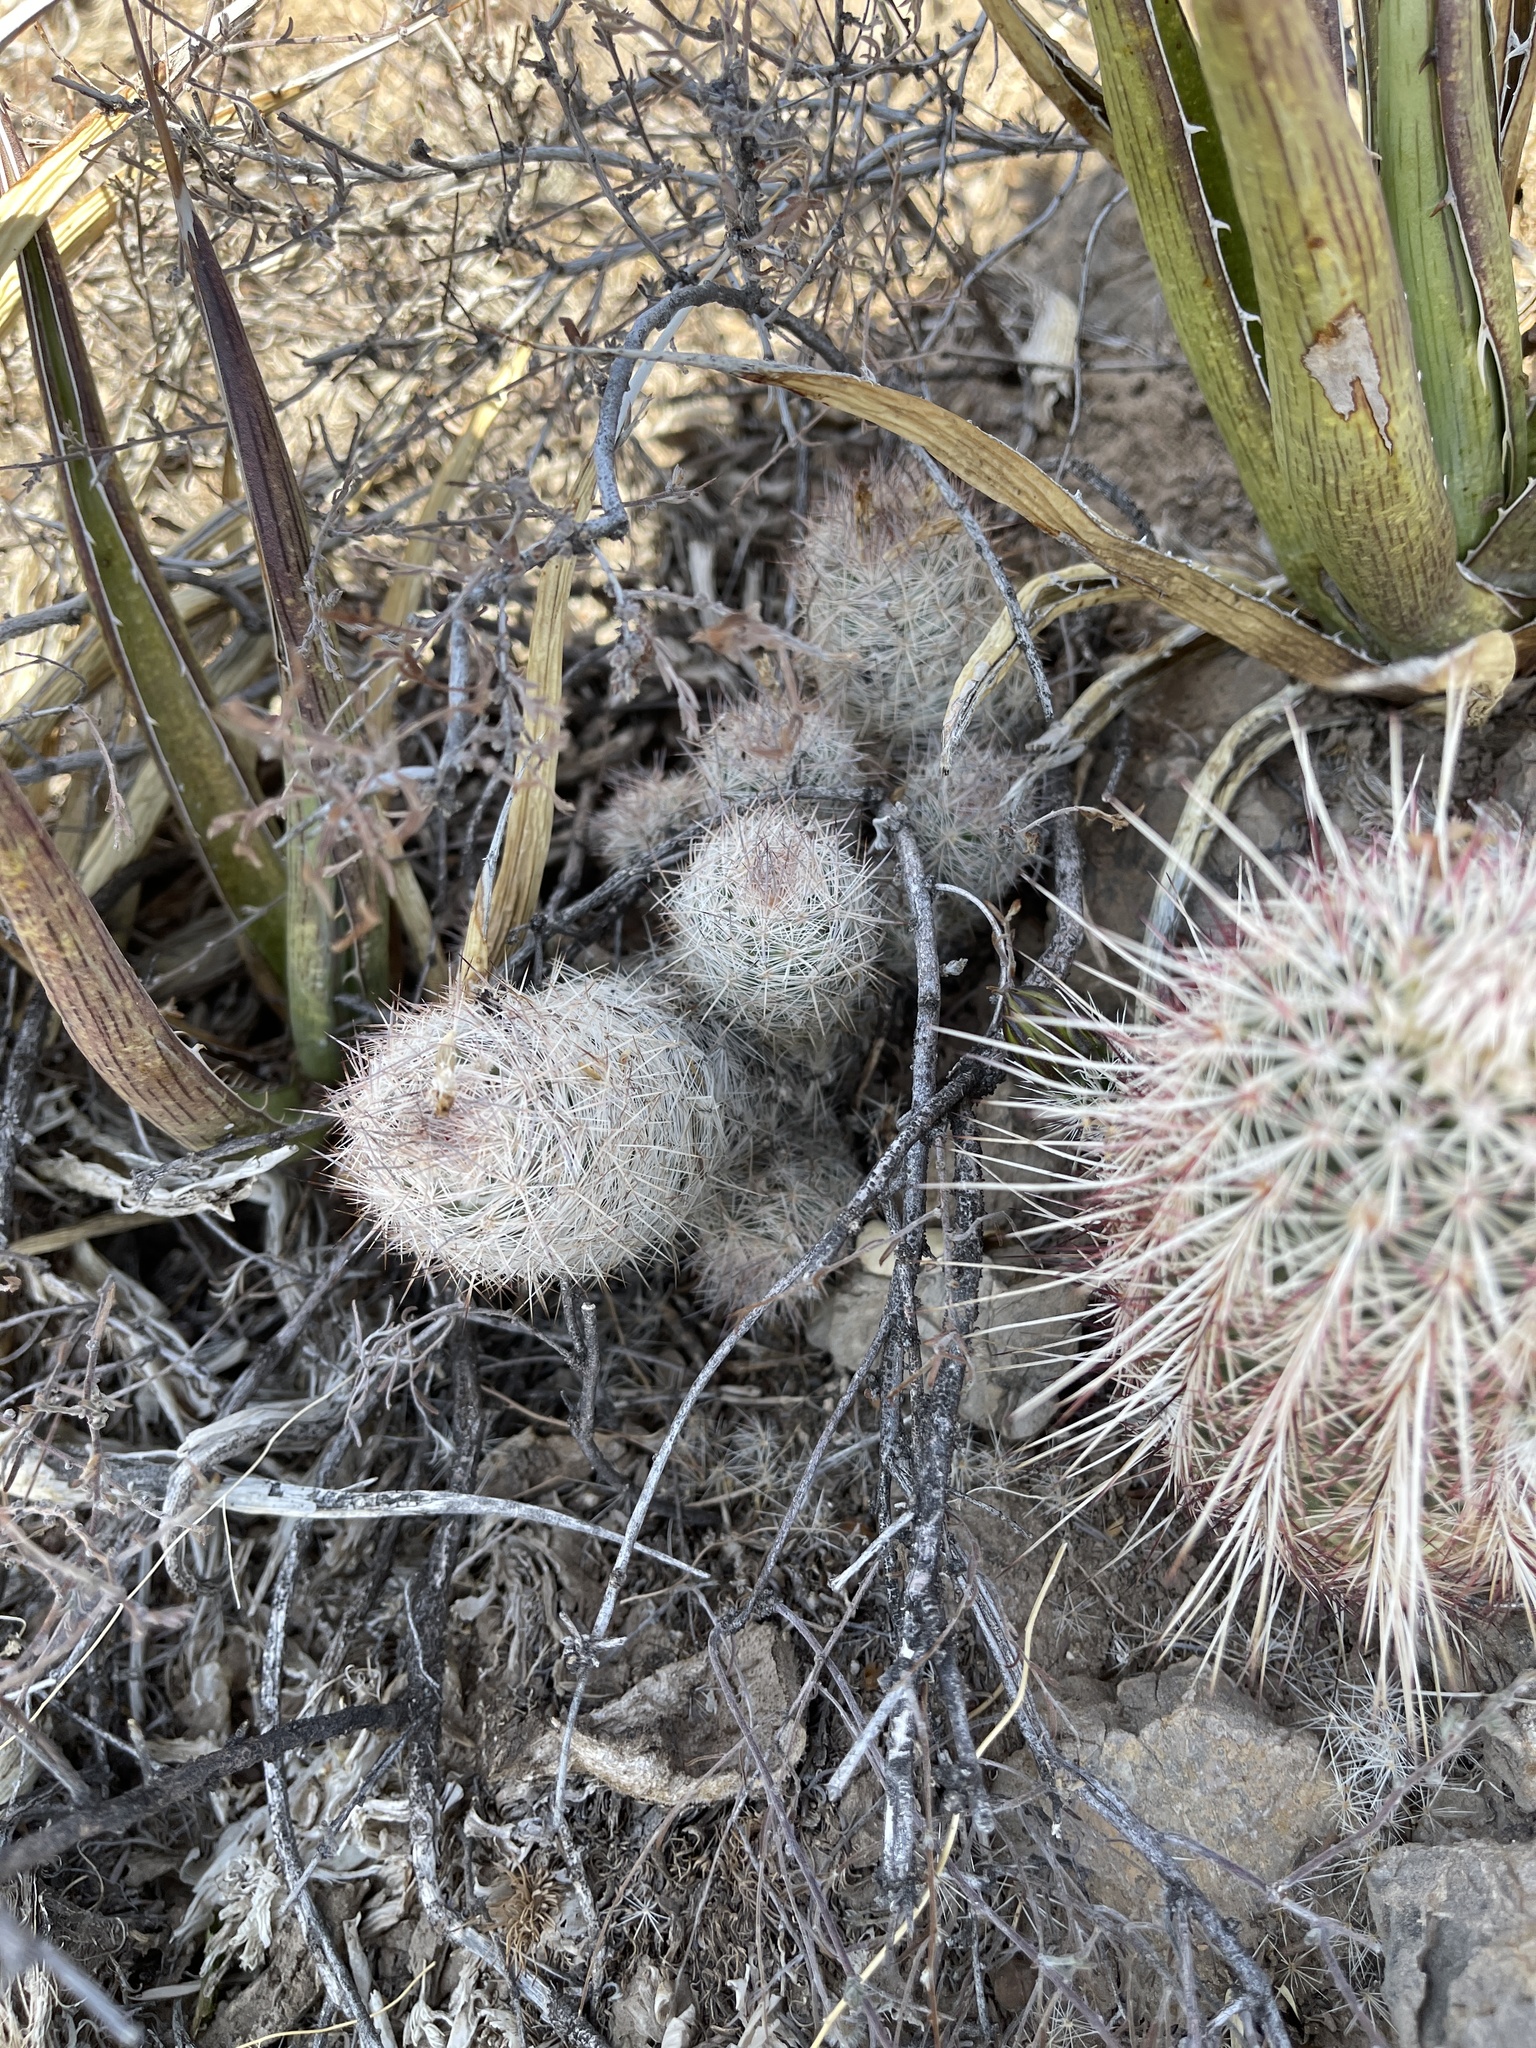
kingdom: Plantae
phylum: Tracheophyta
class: Magnoliopsida
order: Caryophyllales
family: Cactaceae
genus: Pelecyphora
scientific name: Pelecyphora tuberculosa
